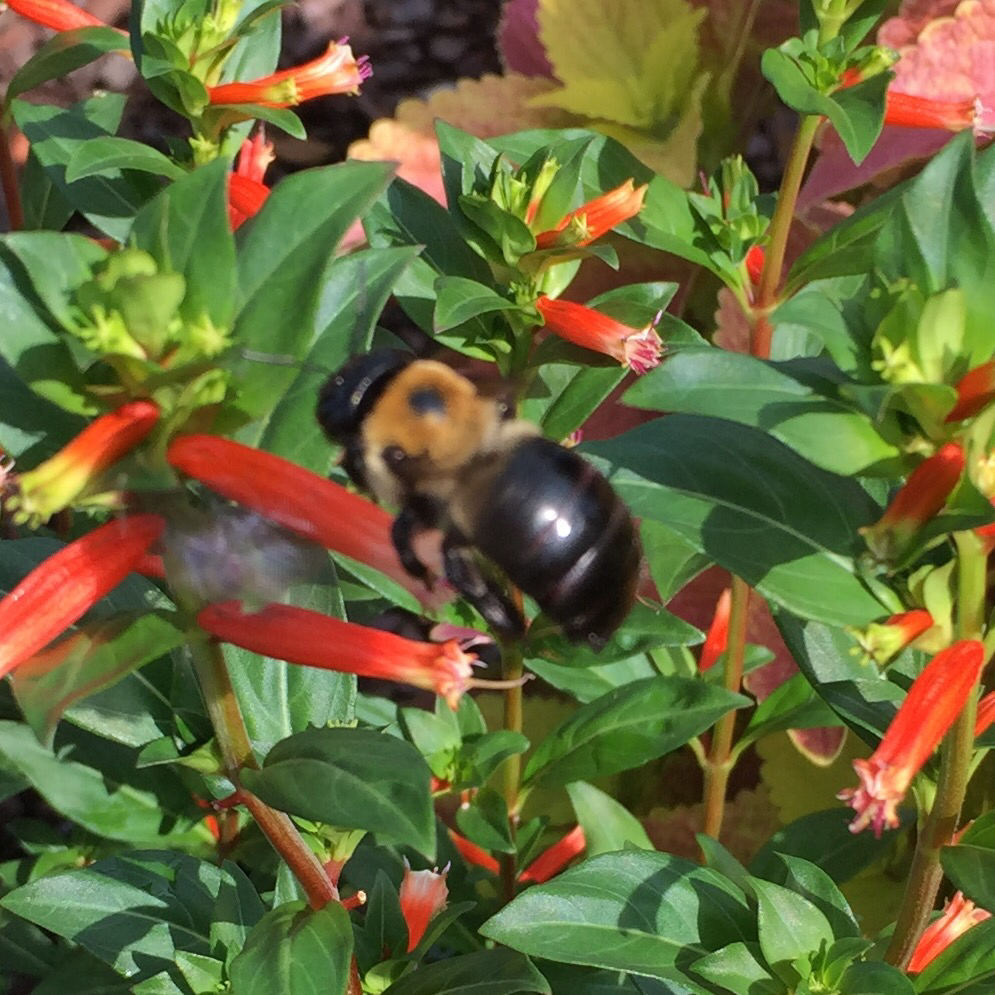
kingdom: Animalia
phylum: Arthropoda
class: Insecta
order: Hymenoptera
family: Apidae
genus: Xylocopa
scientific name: Xylocopa virginica
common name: Carpenter bee
